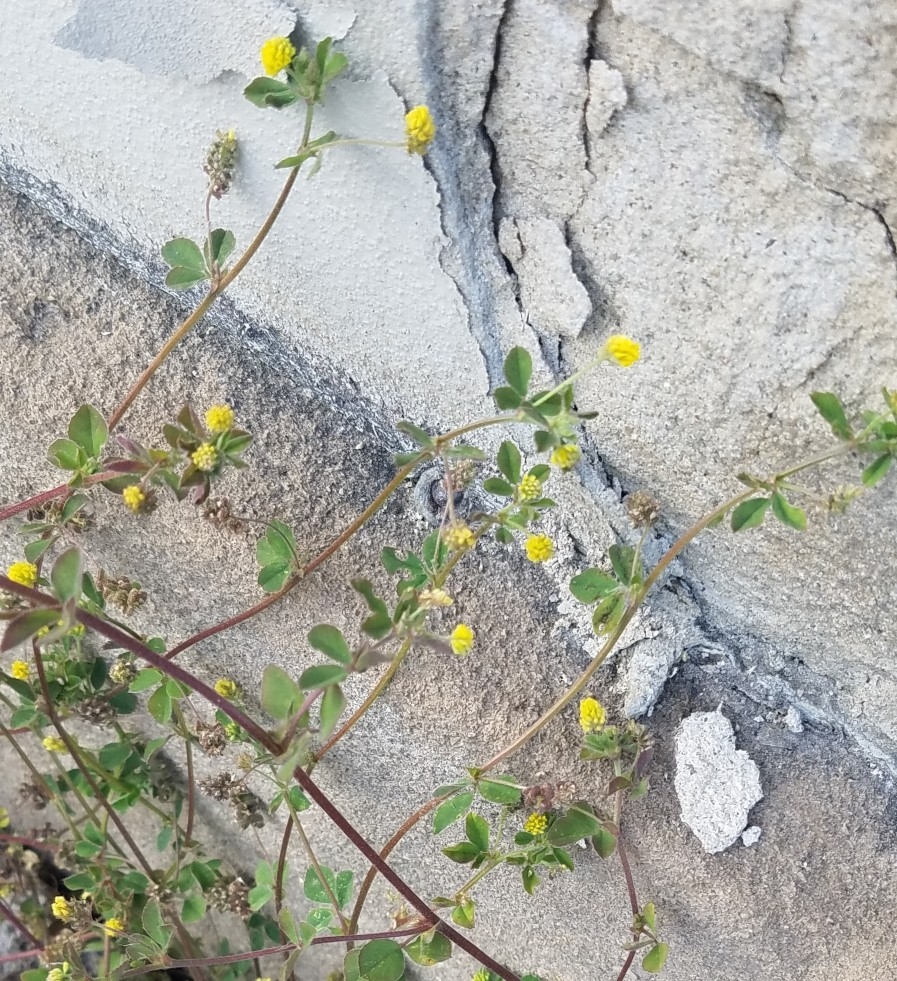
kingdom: Plantae
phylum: Tracheophyta
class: Magnoliopsida
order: Fabales
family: Fabaceae
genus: Medicago
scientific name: Medicago lupulina
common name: Black medick
